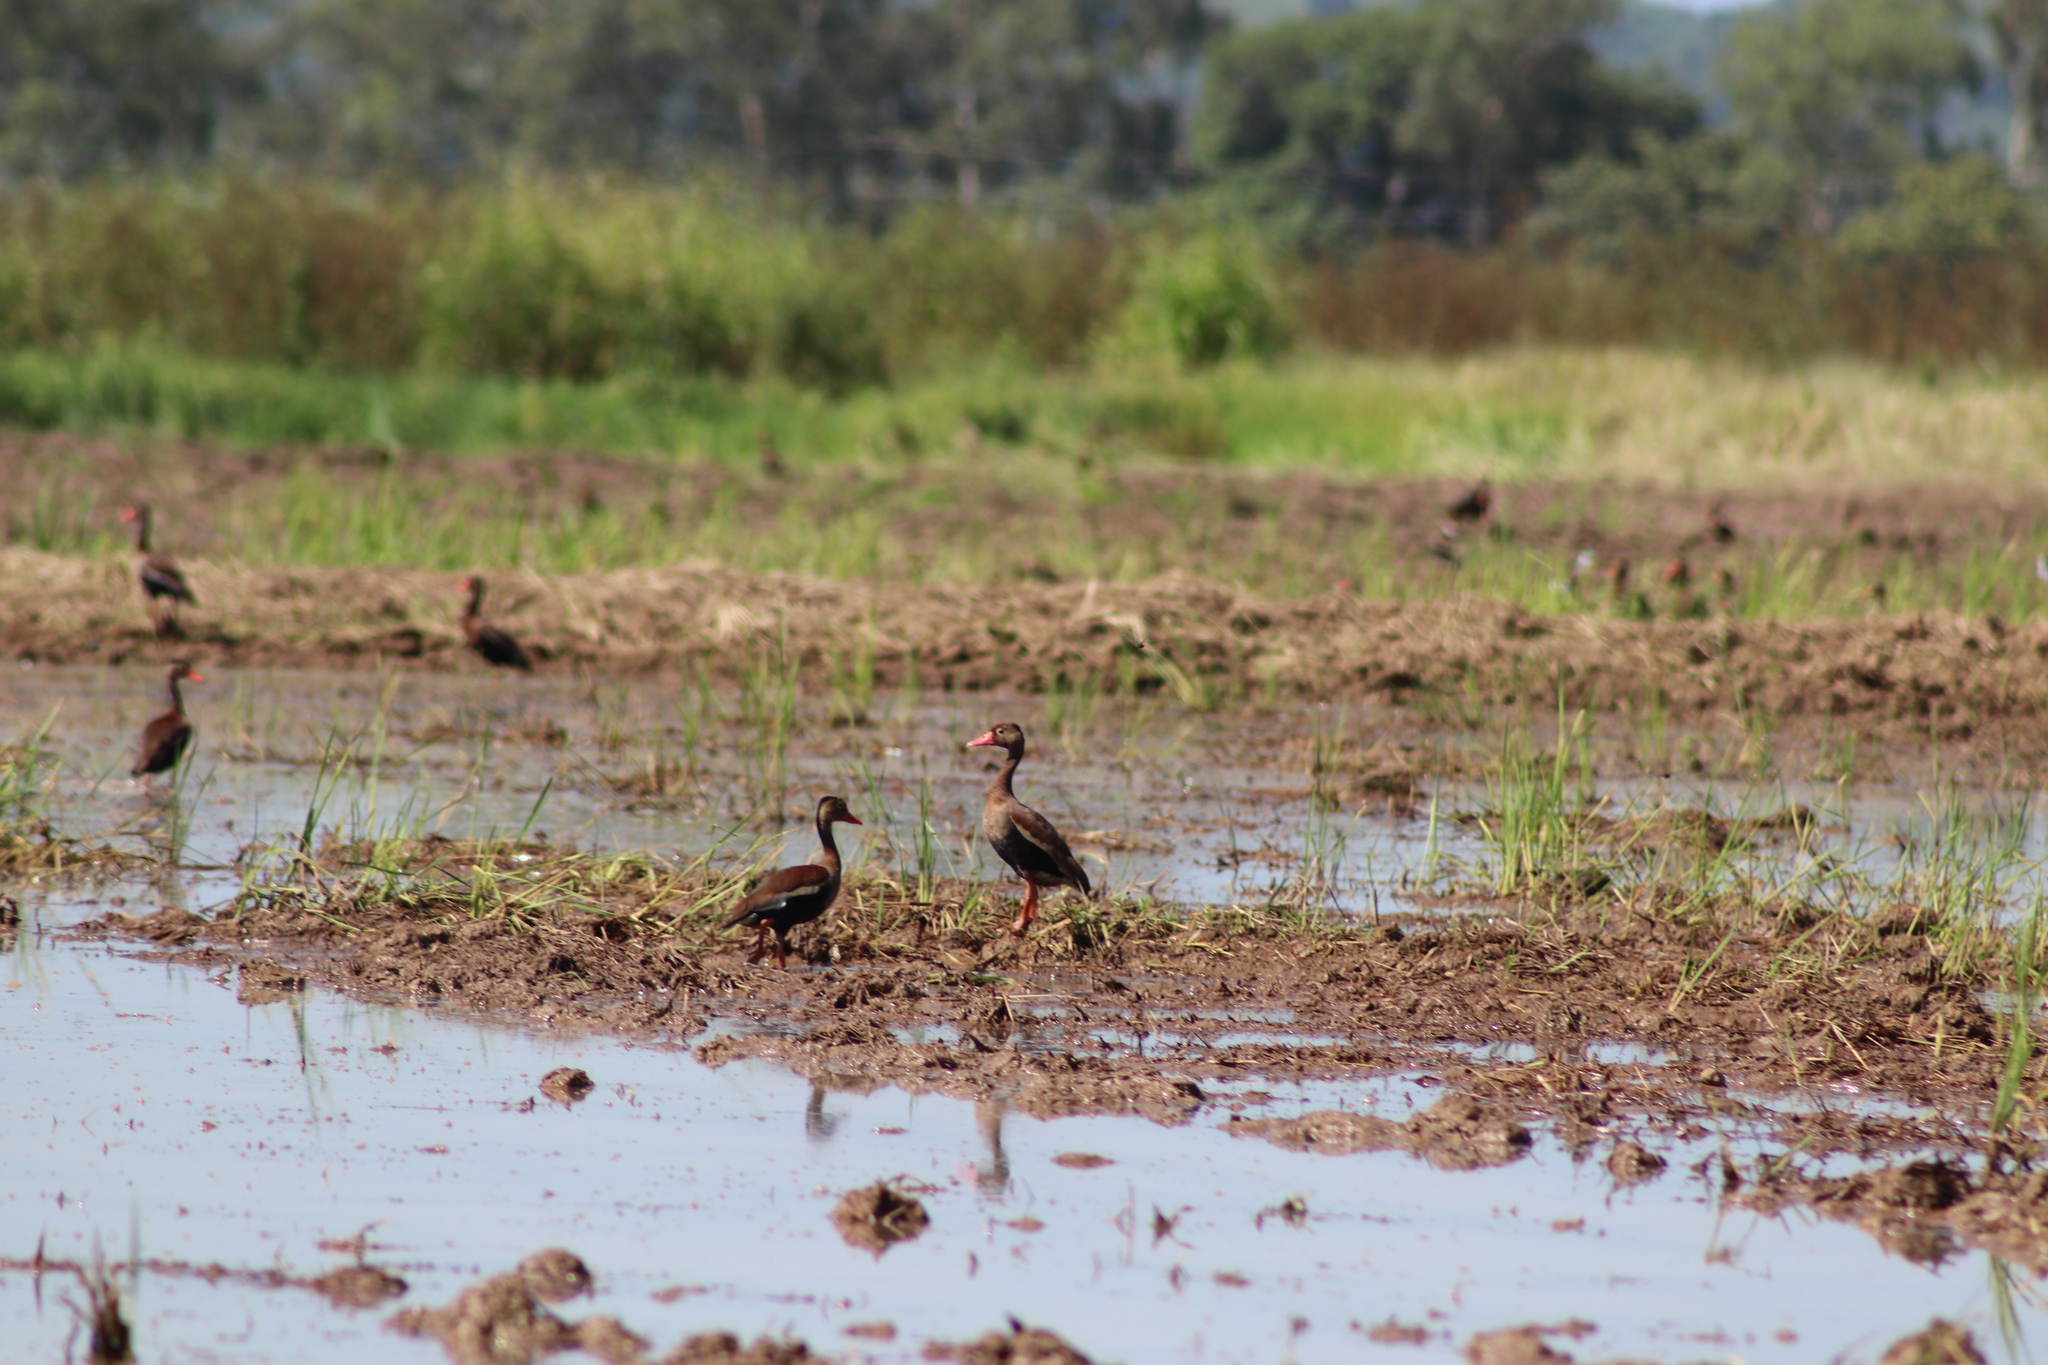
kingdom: Animalia
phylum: Chordata
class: Aves
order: Anseriformes
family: Anatidae
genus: Dendrocygna
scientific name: Dendrocygna autumnalis
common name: Black-bellied whistling duck
